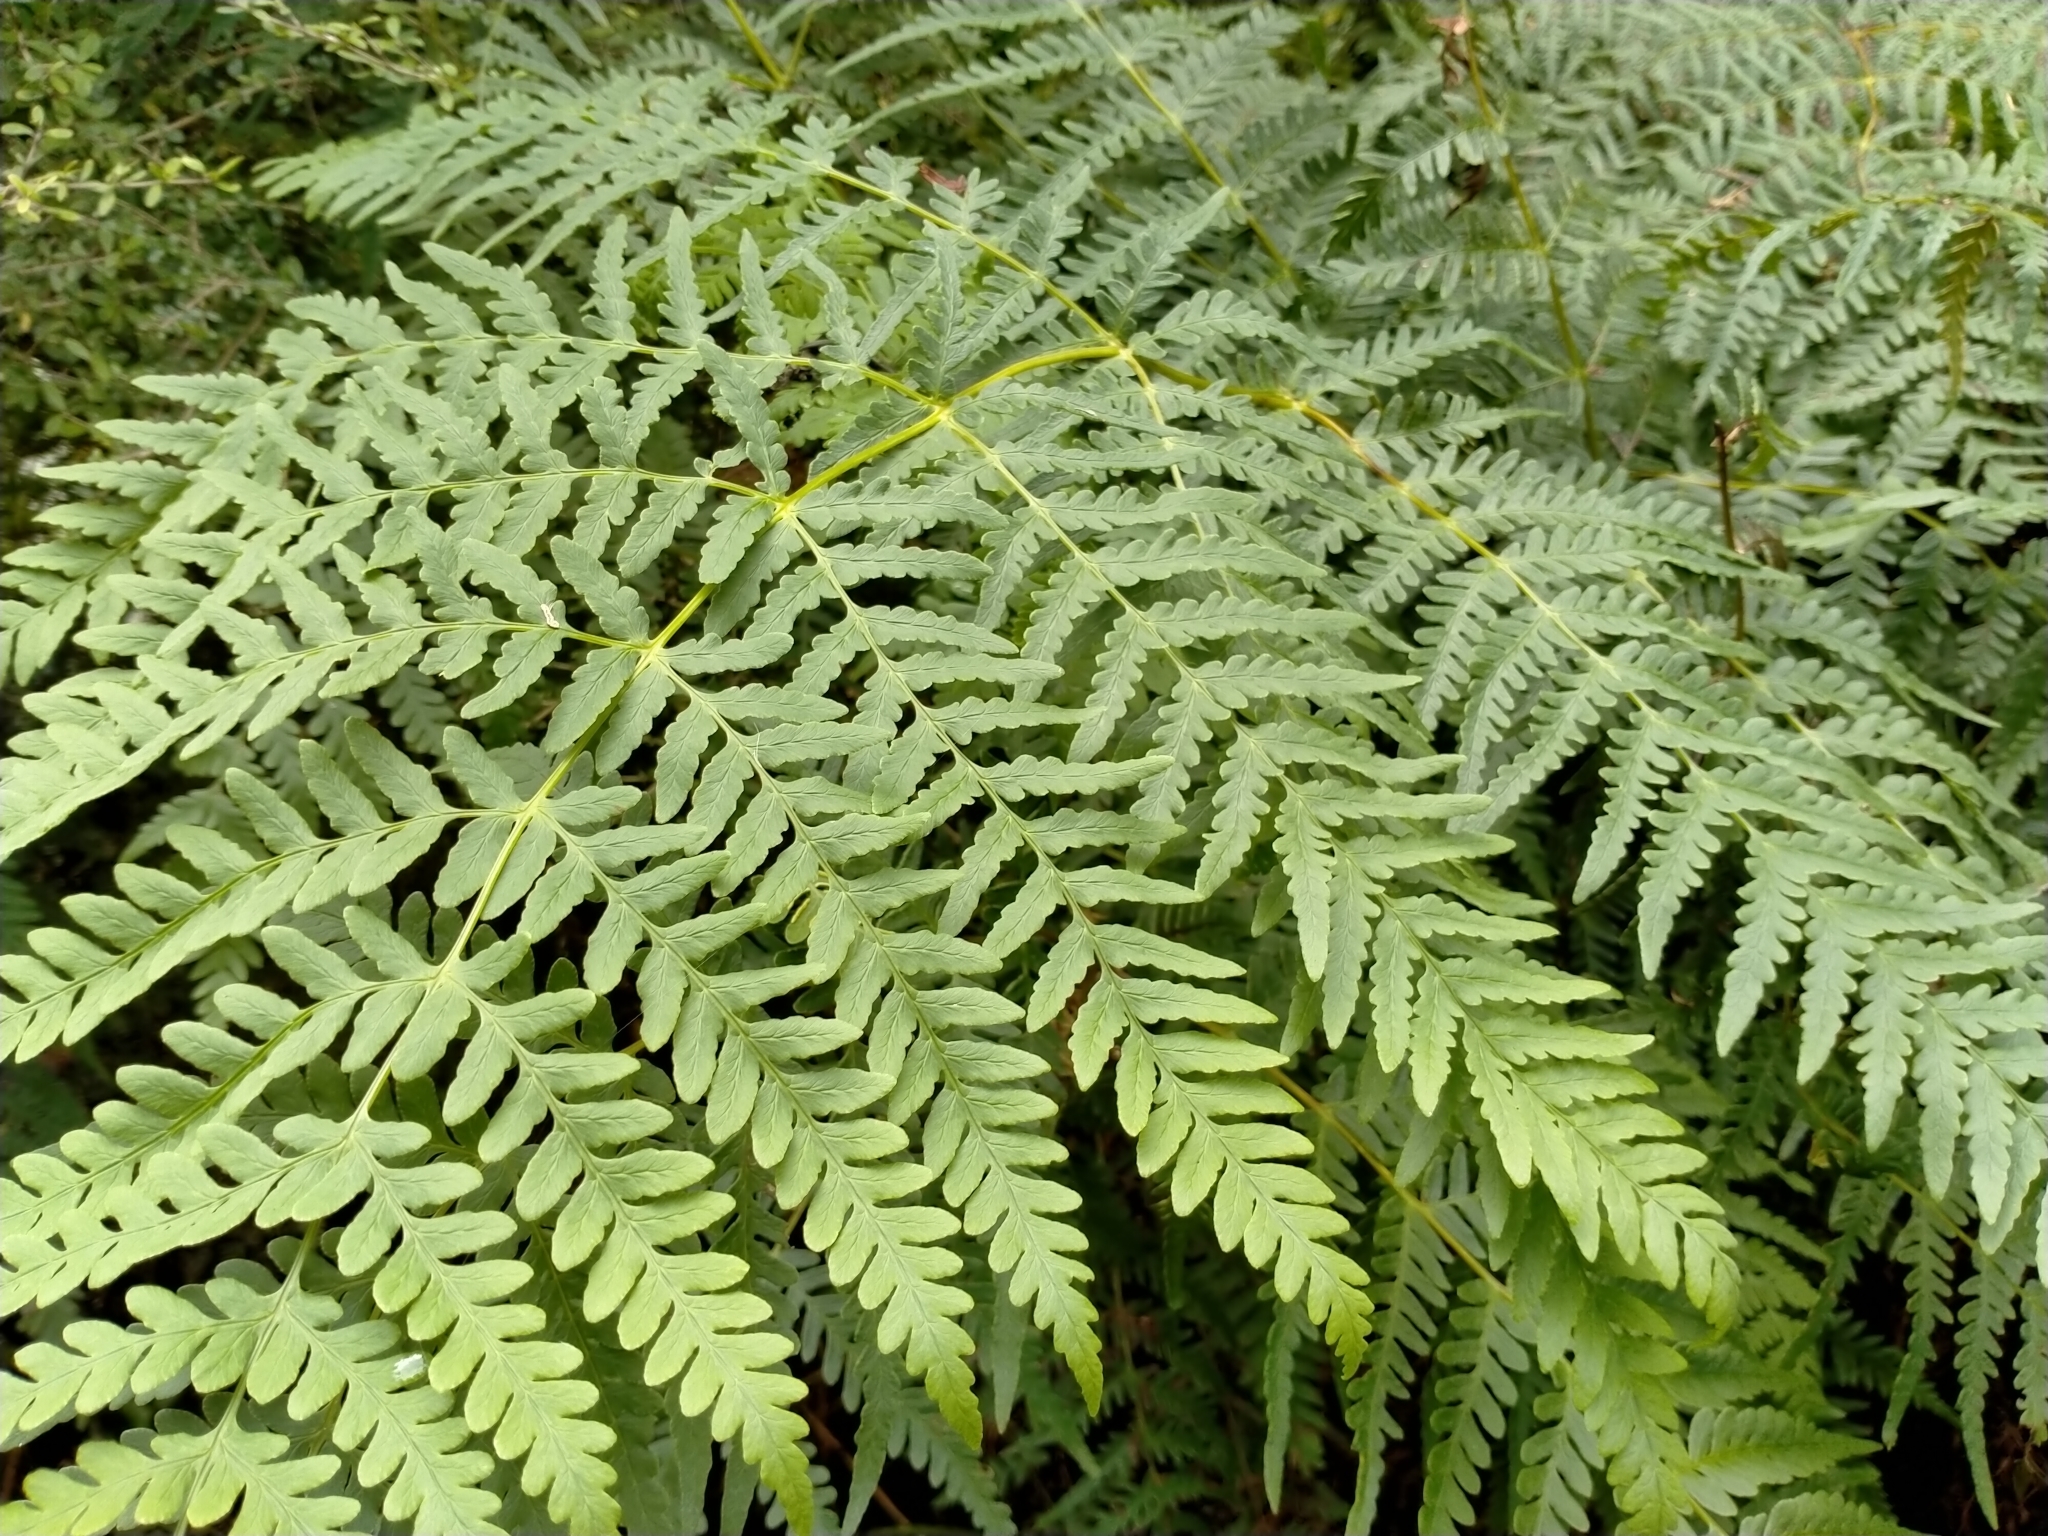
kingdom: Plantae
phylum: Tracheophyta
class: Polypodiopsida
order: Polypodiales
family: Dennstaedtiaceae
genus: Histiopteris
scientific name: Histiopteris incisa
